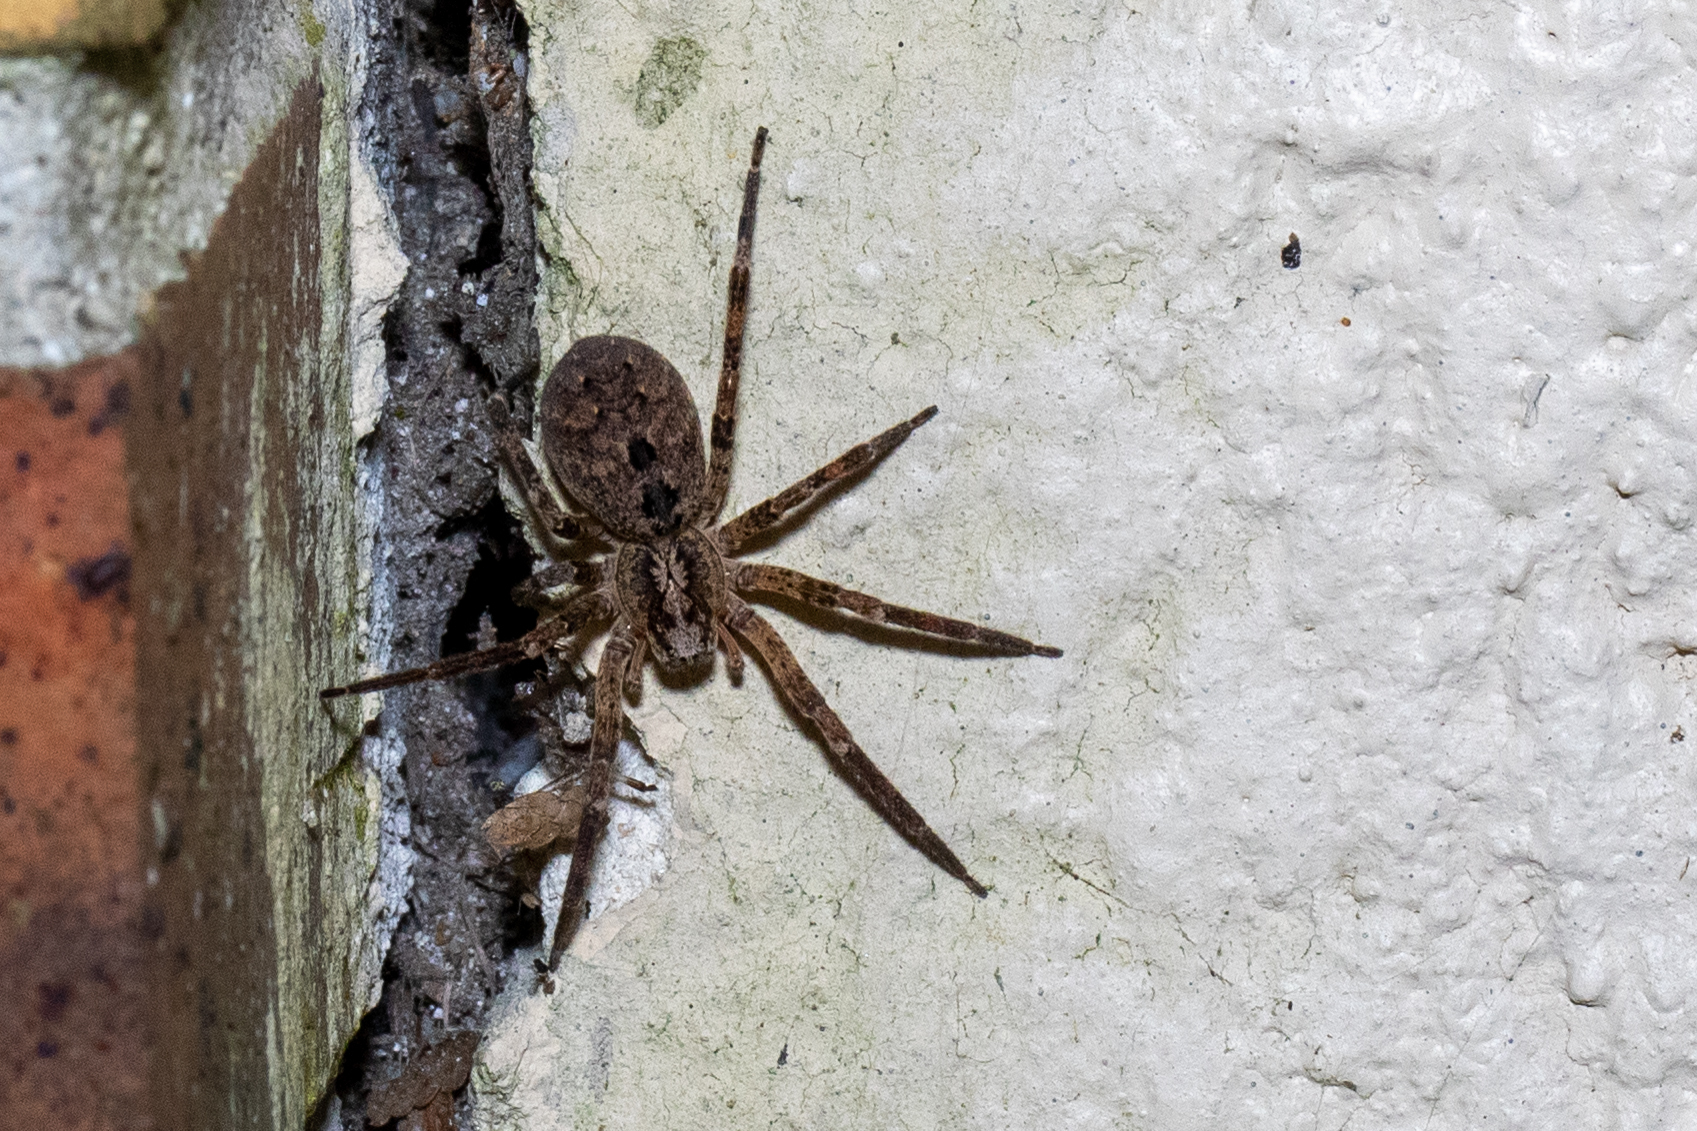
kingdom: Animalia
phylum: Arthropoda
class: Arachnida
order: Araneae
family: Zoropsidae
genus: Zoropsis
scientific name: Zoropsis spinimana
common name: Zoropsid spider
